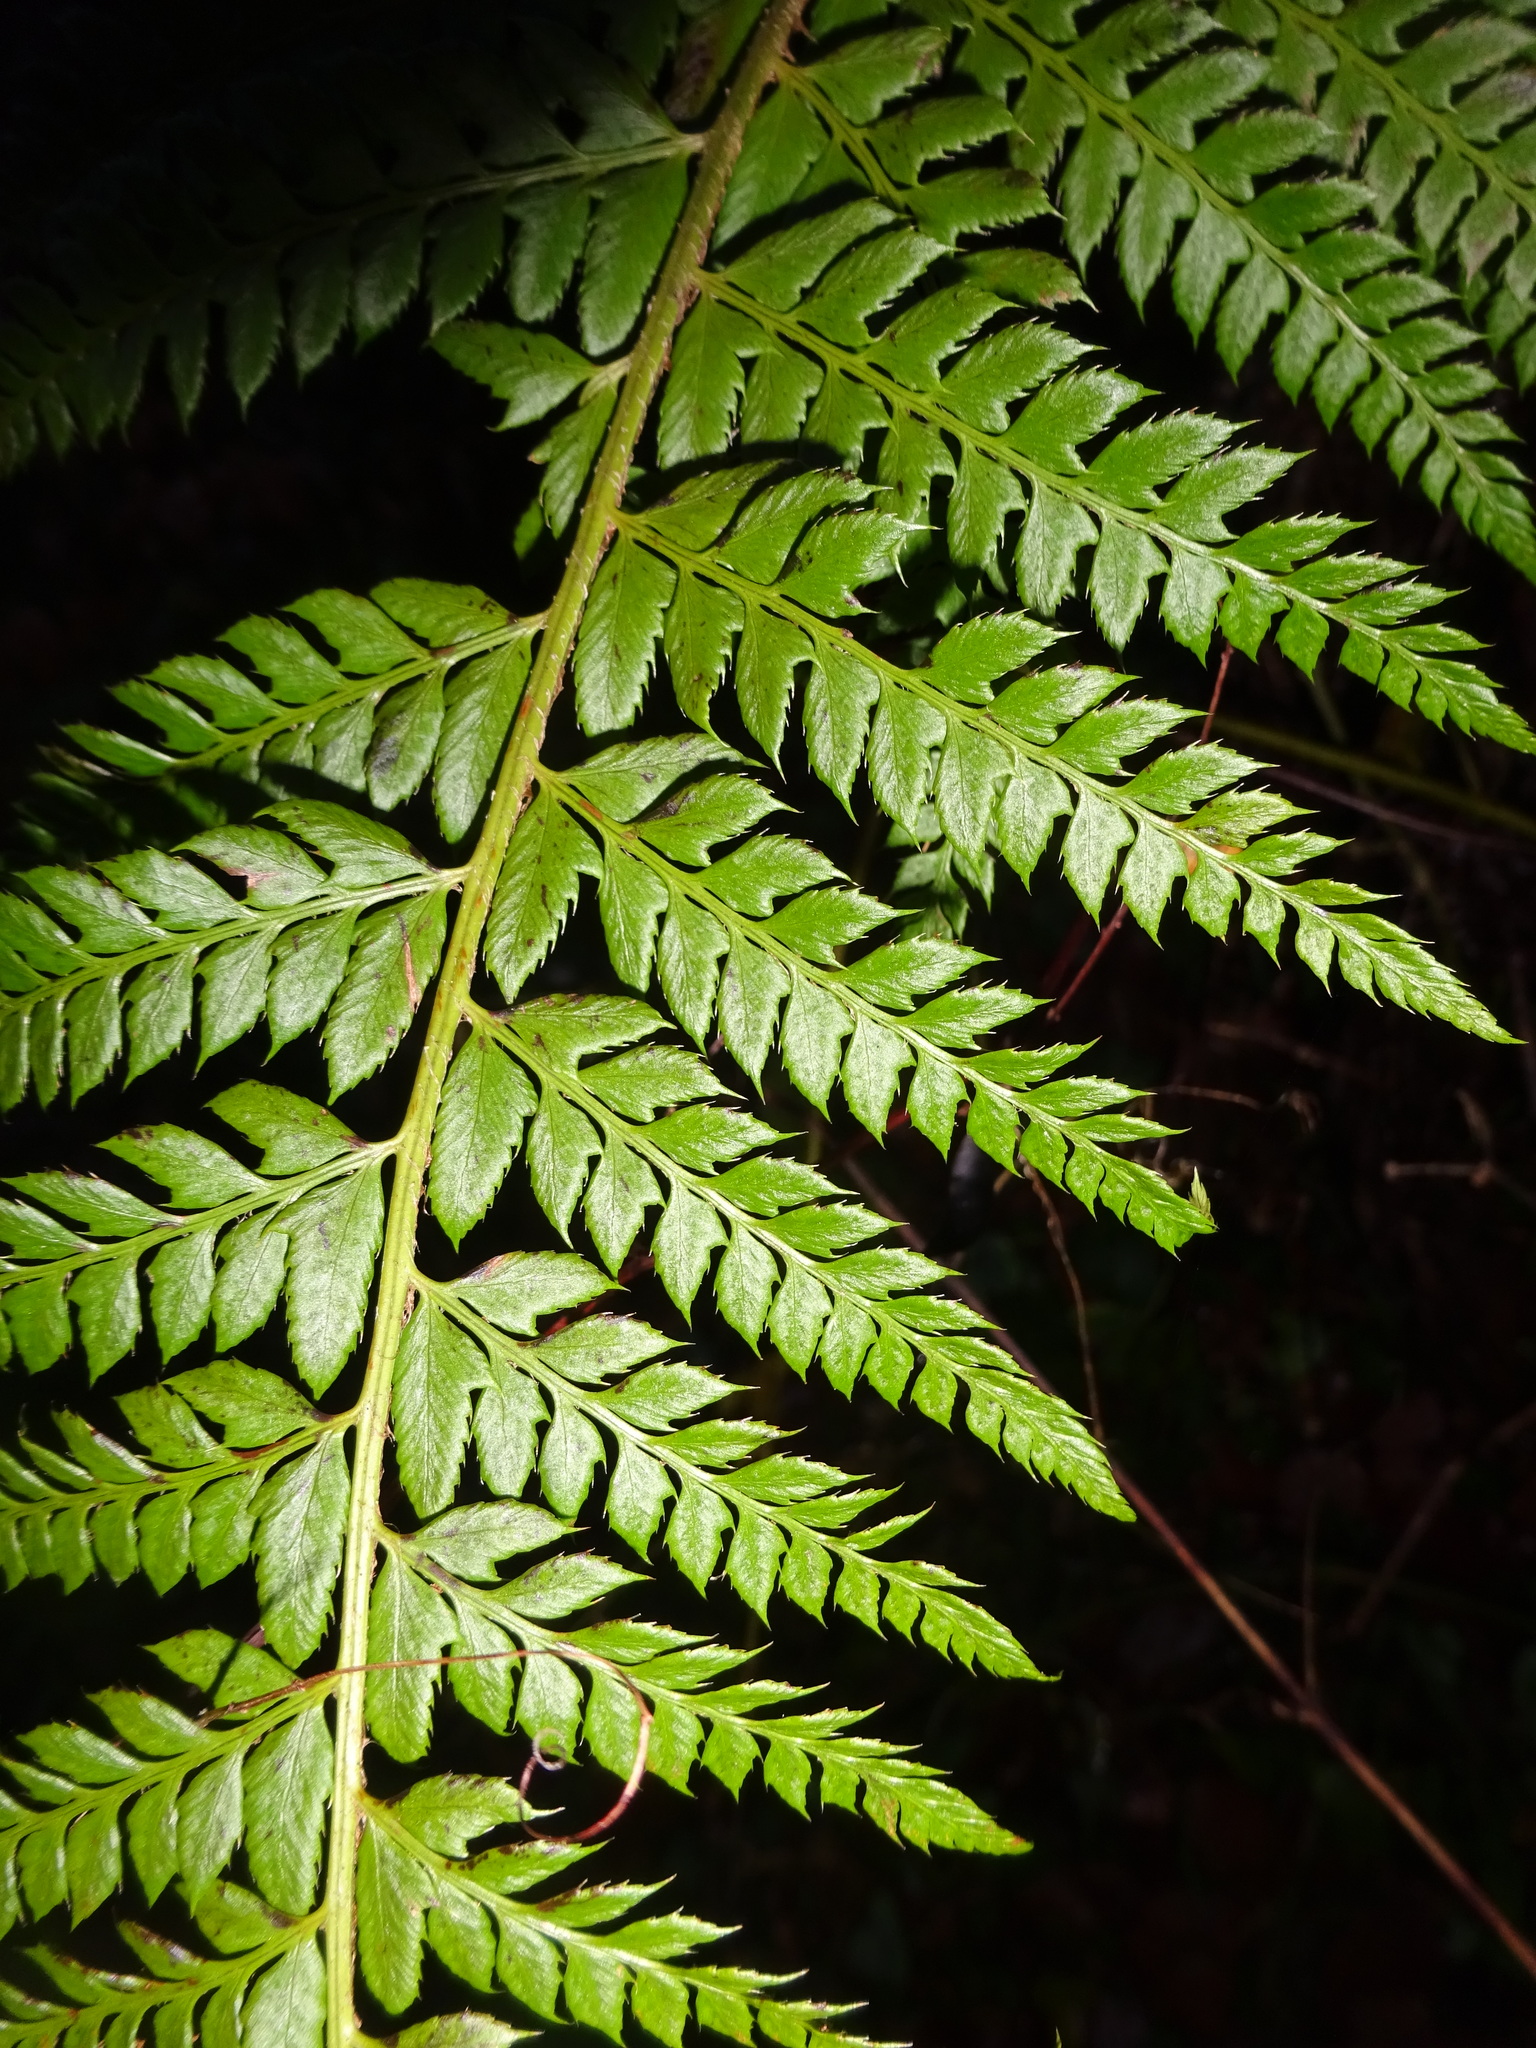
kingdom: Plantae
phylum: Tracheophyta
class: Polypodiopsida
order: Polypodiales
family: Dryopteridaceae
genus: Polystichum
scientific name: Polystichum aculeatum
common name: Hard shield-fern
